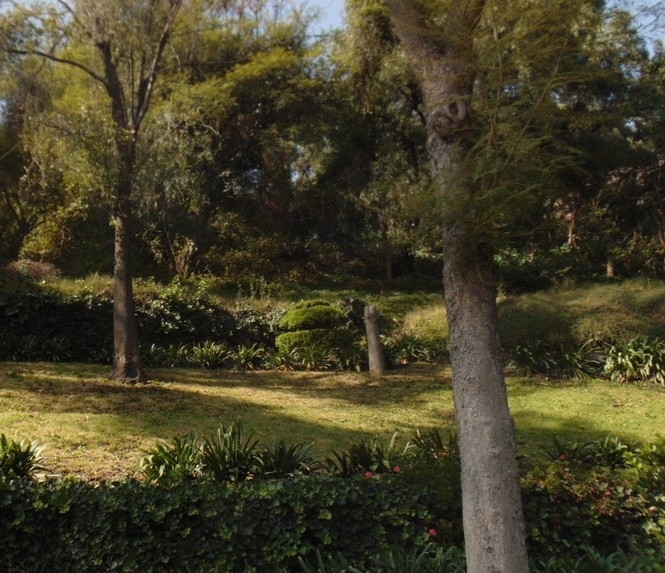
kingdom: Plantae
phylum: Tracheophyta
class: Magnoliopsida
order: Malpighiales
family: Salicaceae
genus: Salix
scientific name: Salix humboldtiana
